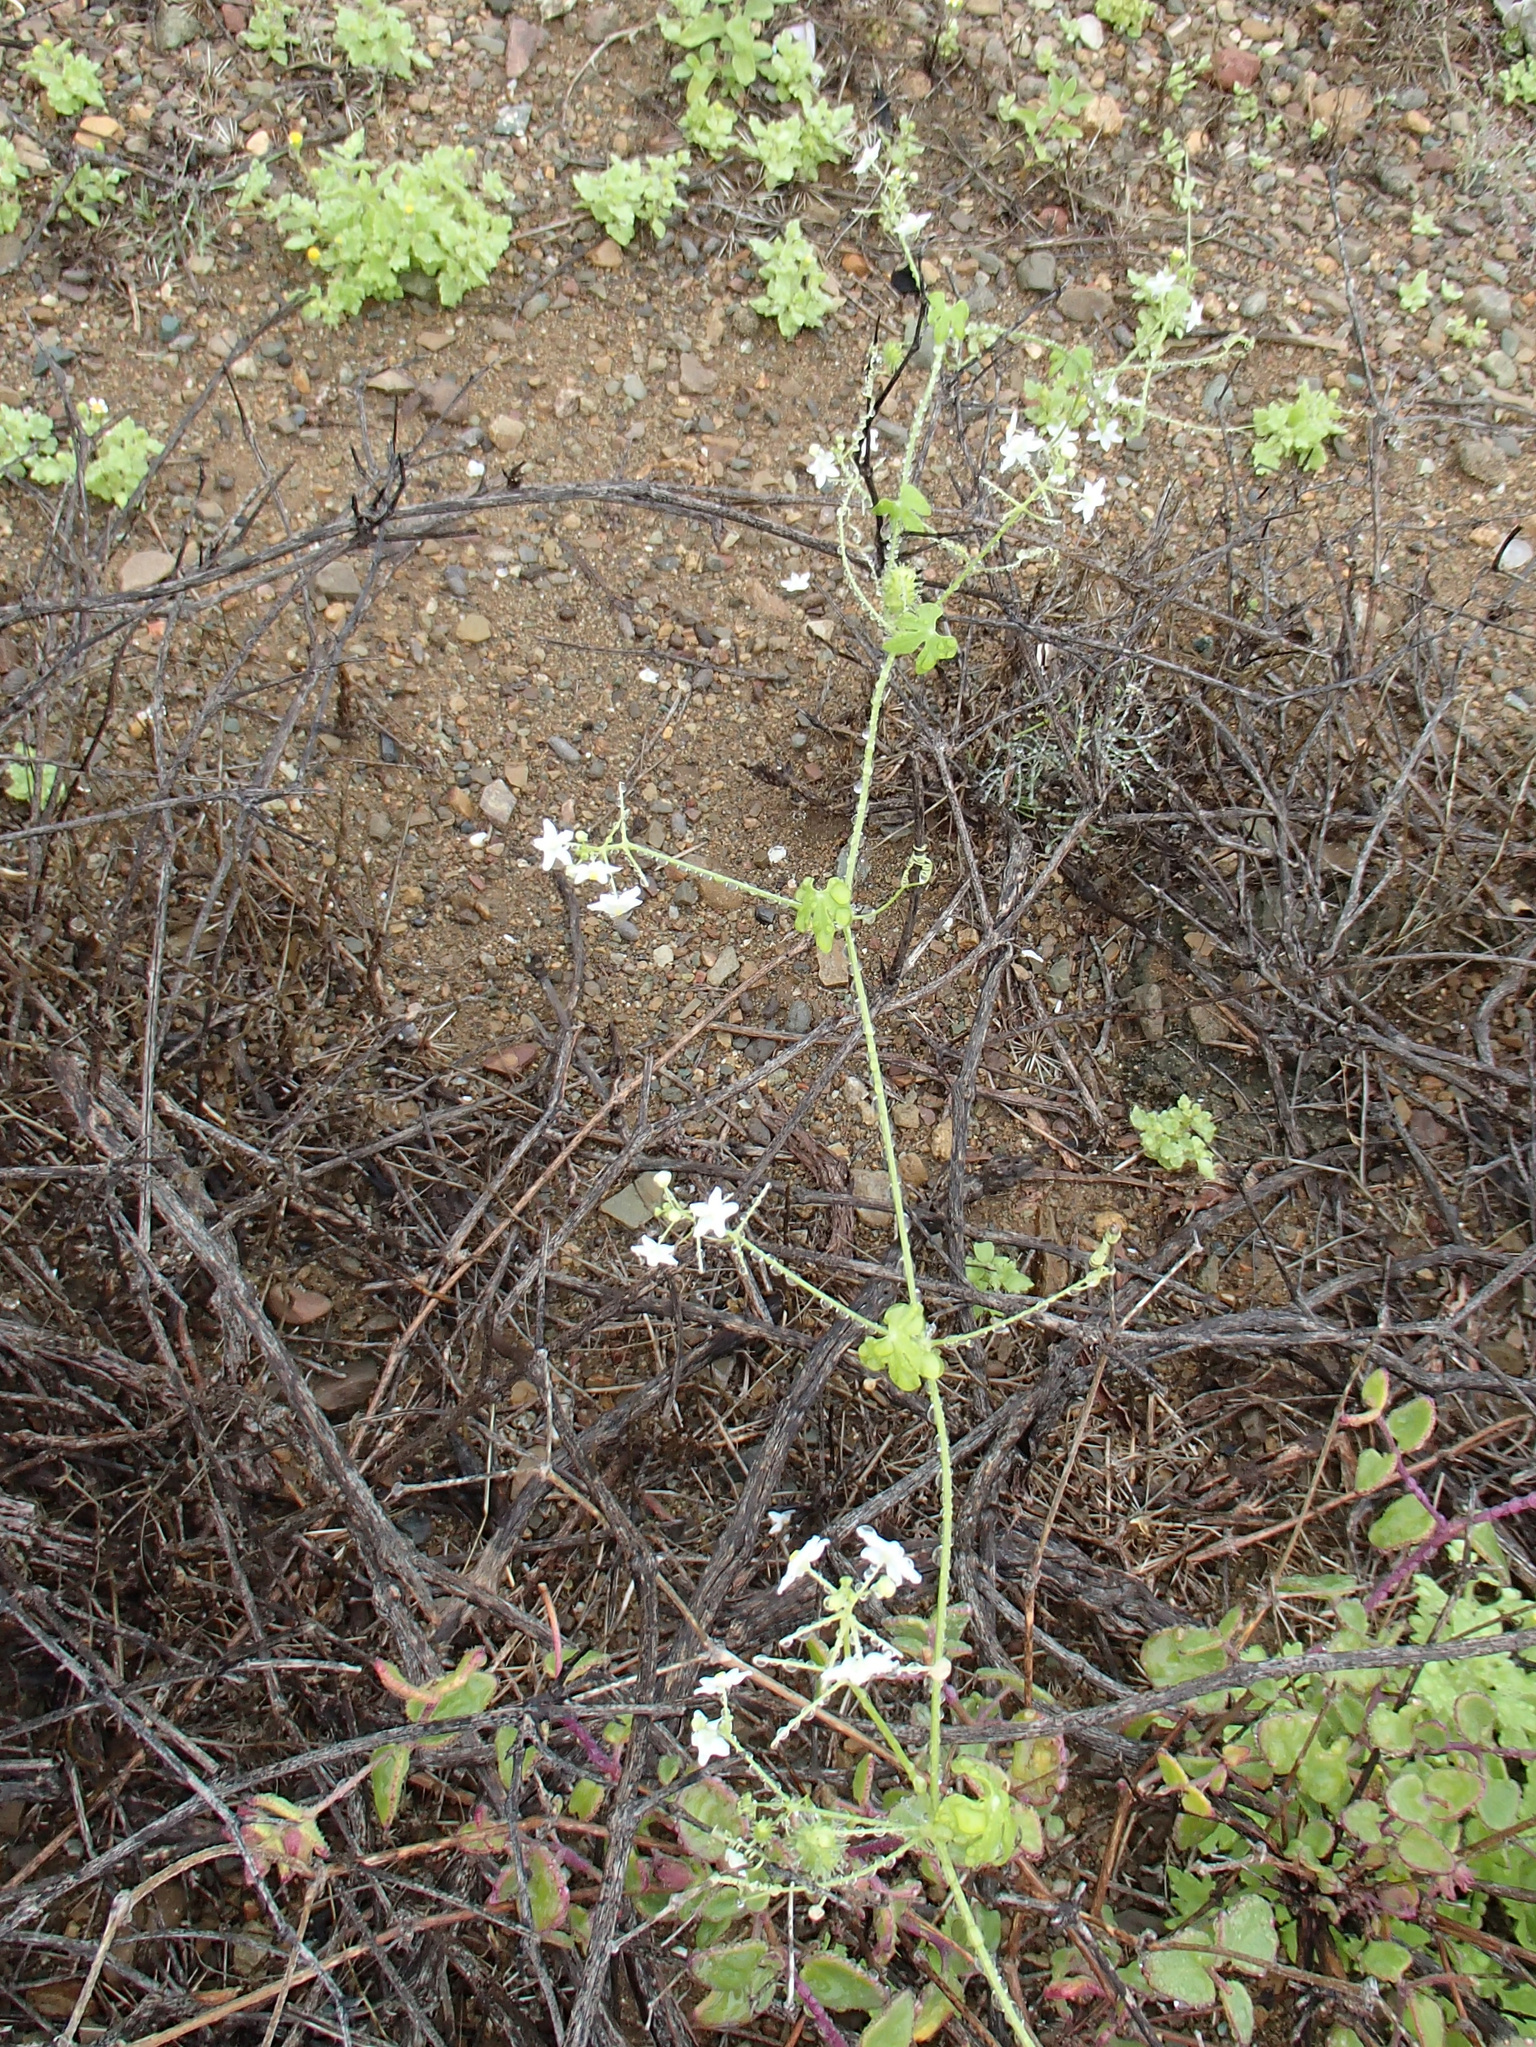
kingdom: Plantae
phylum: Tracheophyta
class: Magnoliopsida
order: Cucurbitales
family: Cucurbitaceae
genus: Echinopepon
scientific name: Echinopepon minimus
